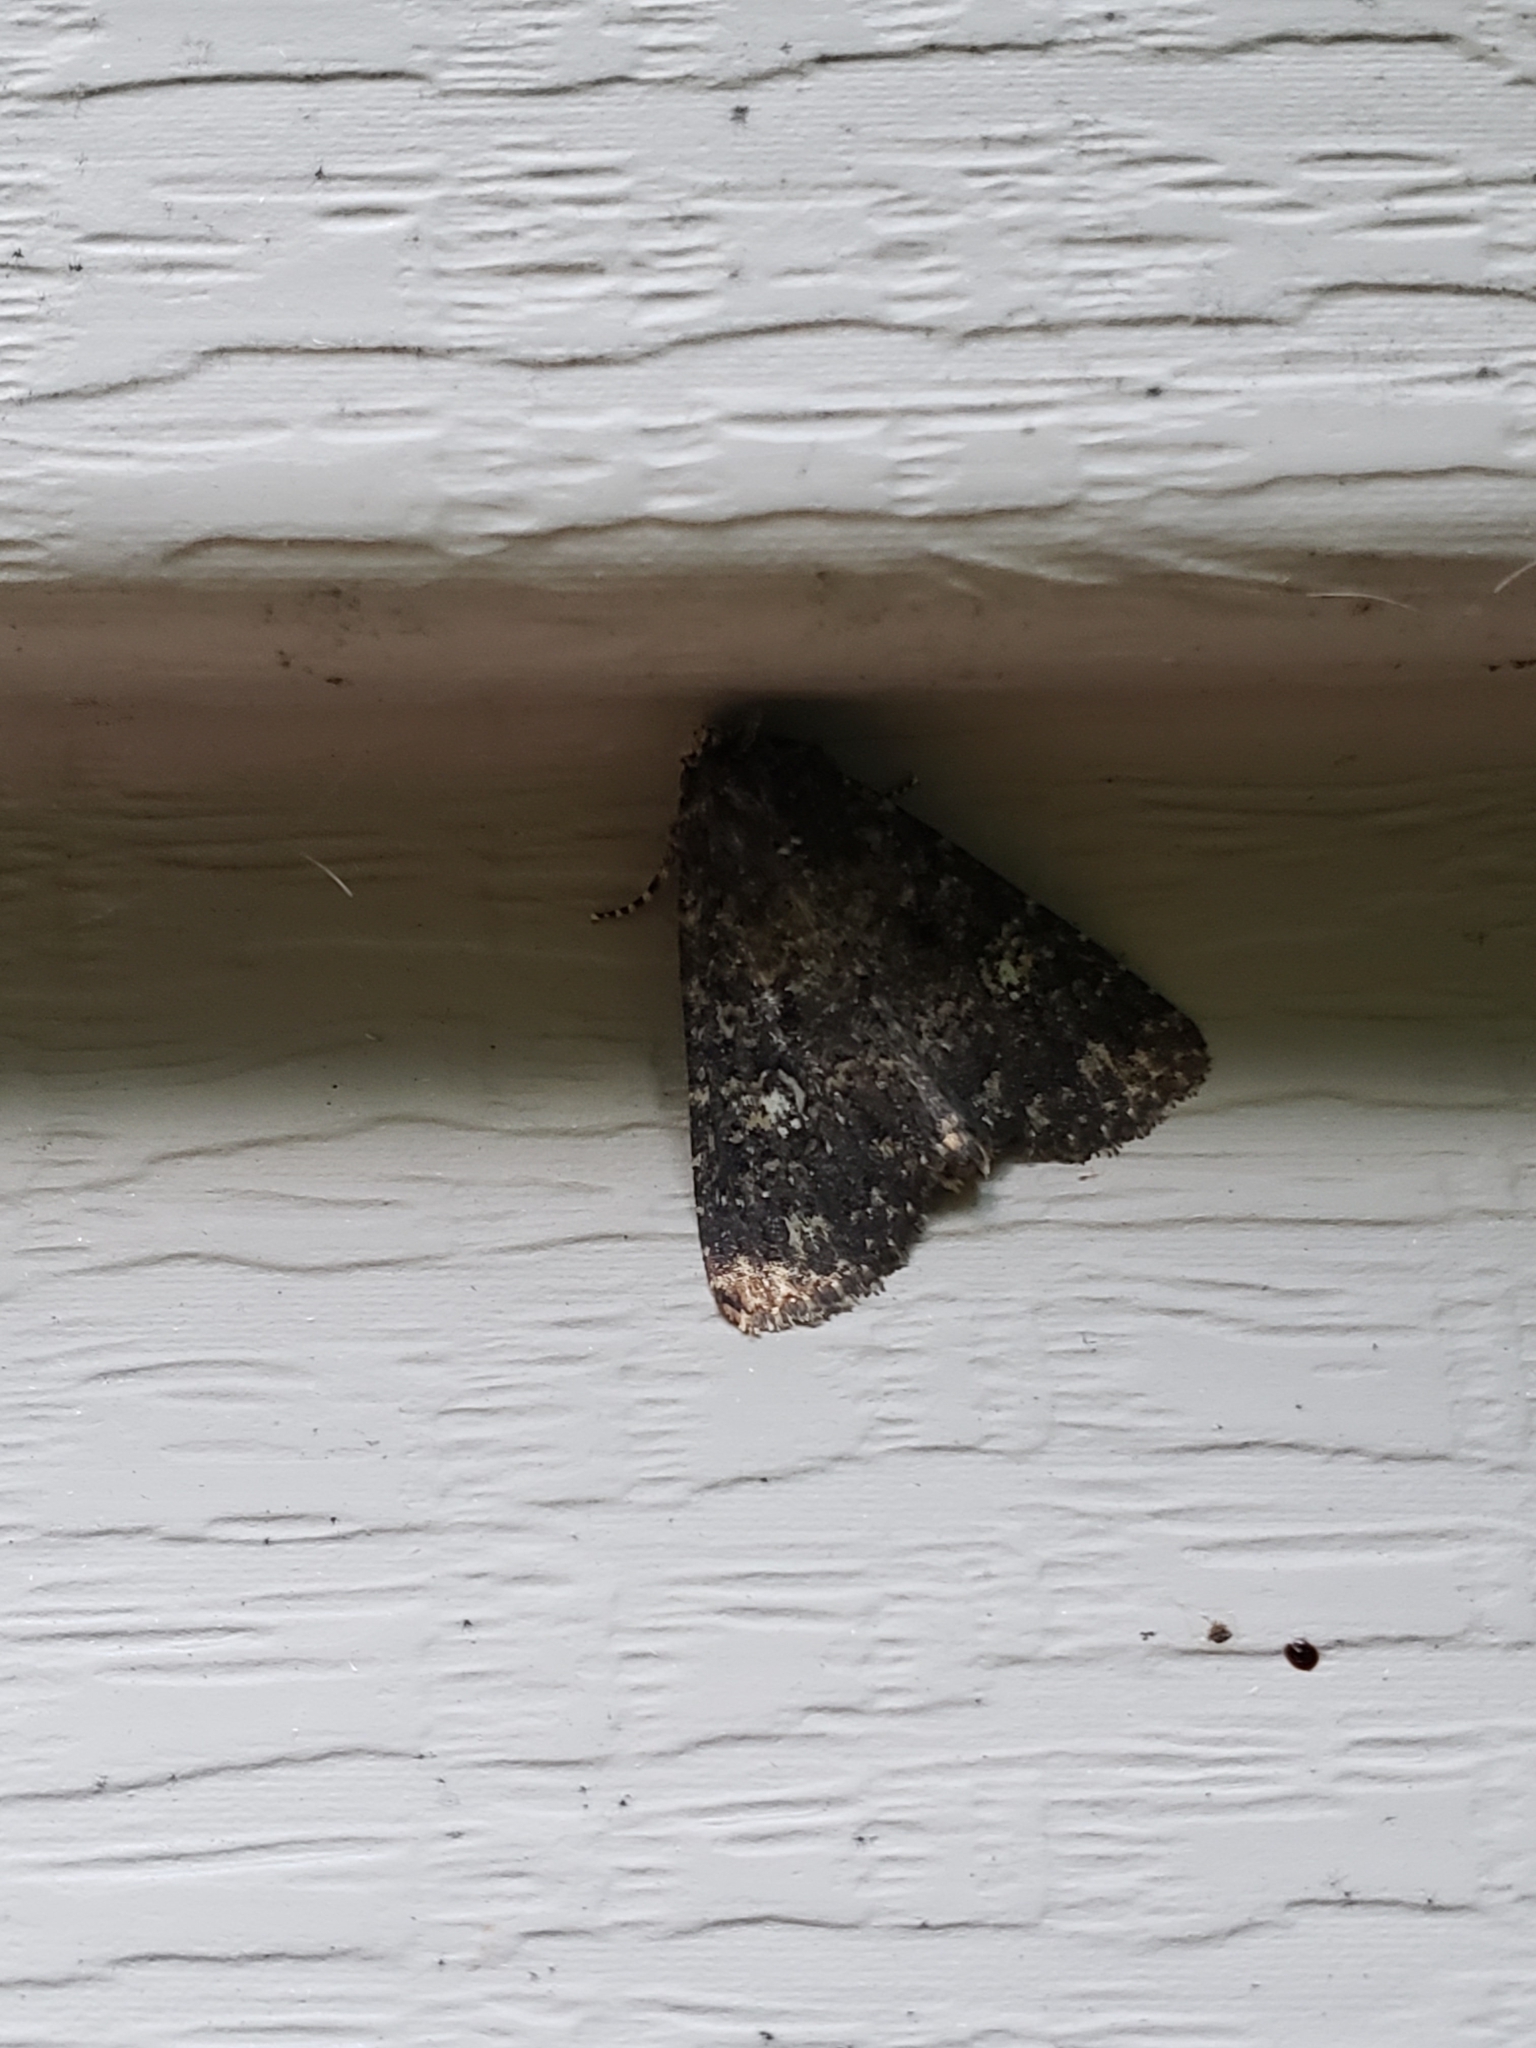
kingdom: Animalia
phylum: Arthropoda
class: Insecta
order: Lepidoptera
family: Noctuidae
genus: Condica
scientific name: Condica vecors
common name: Dusky groundling
